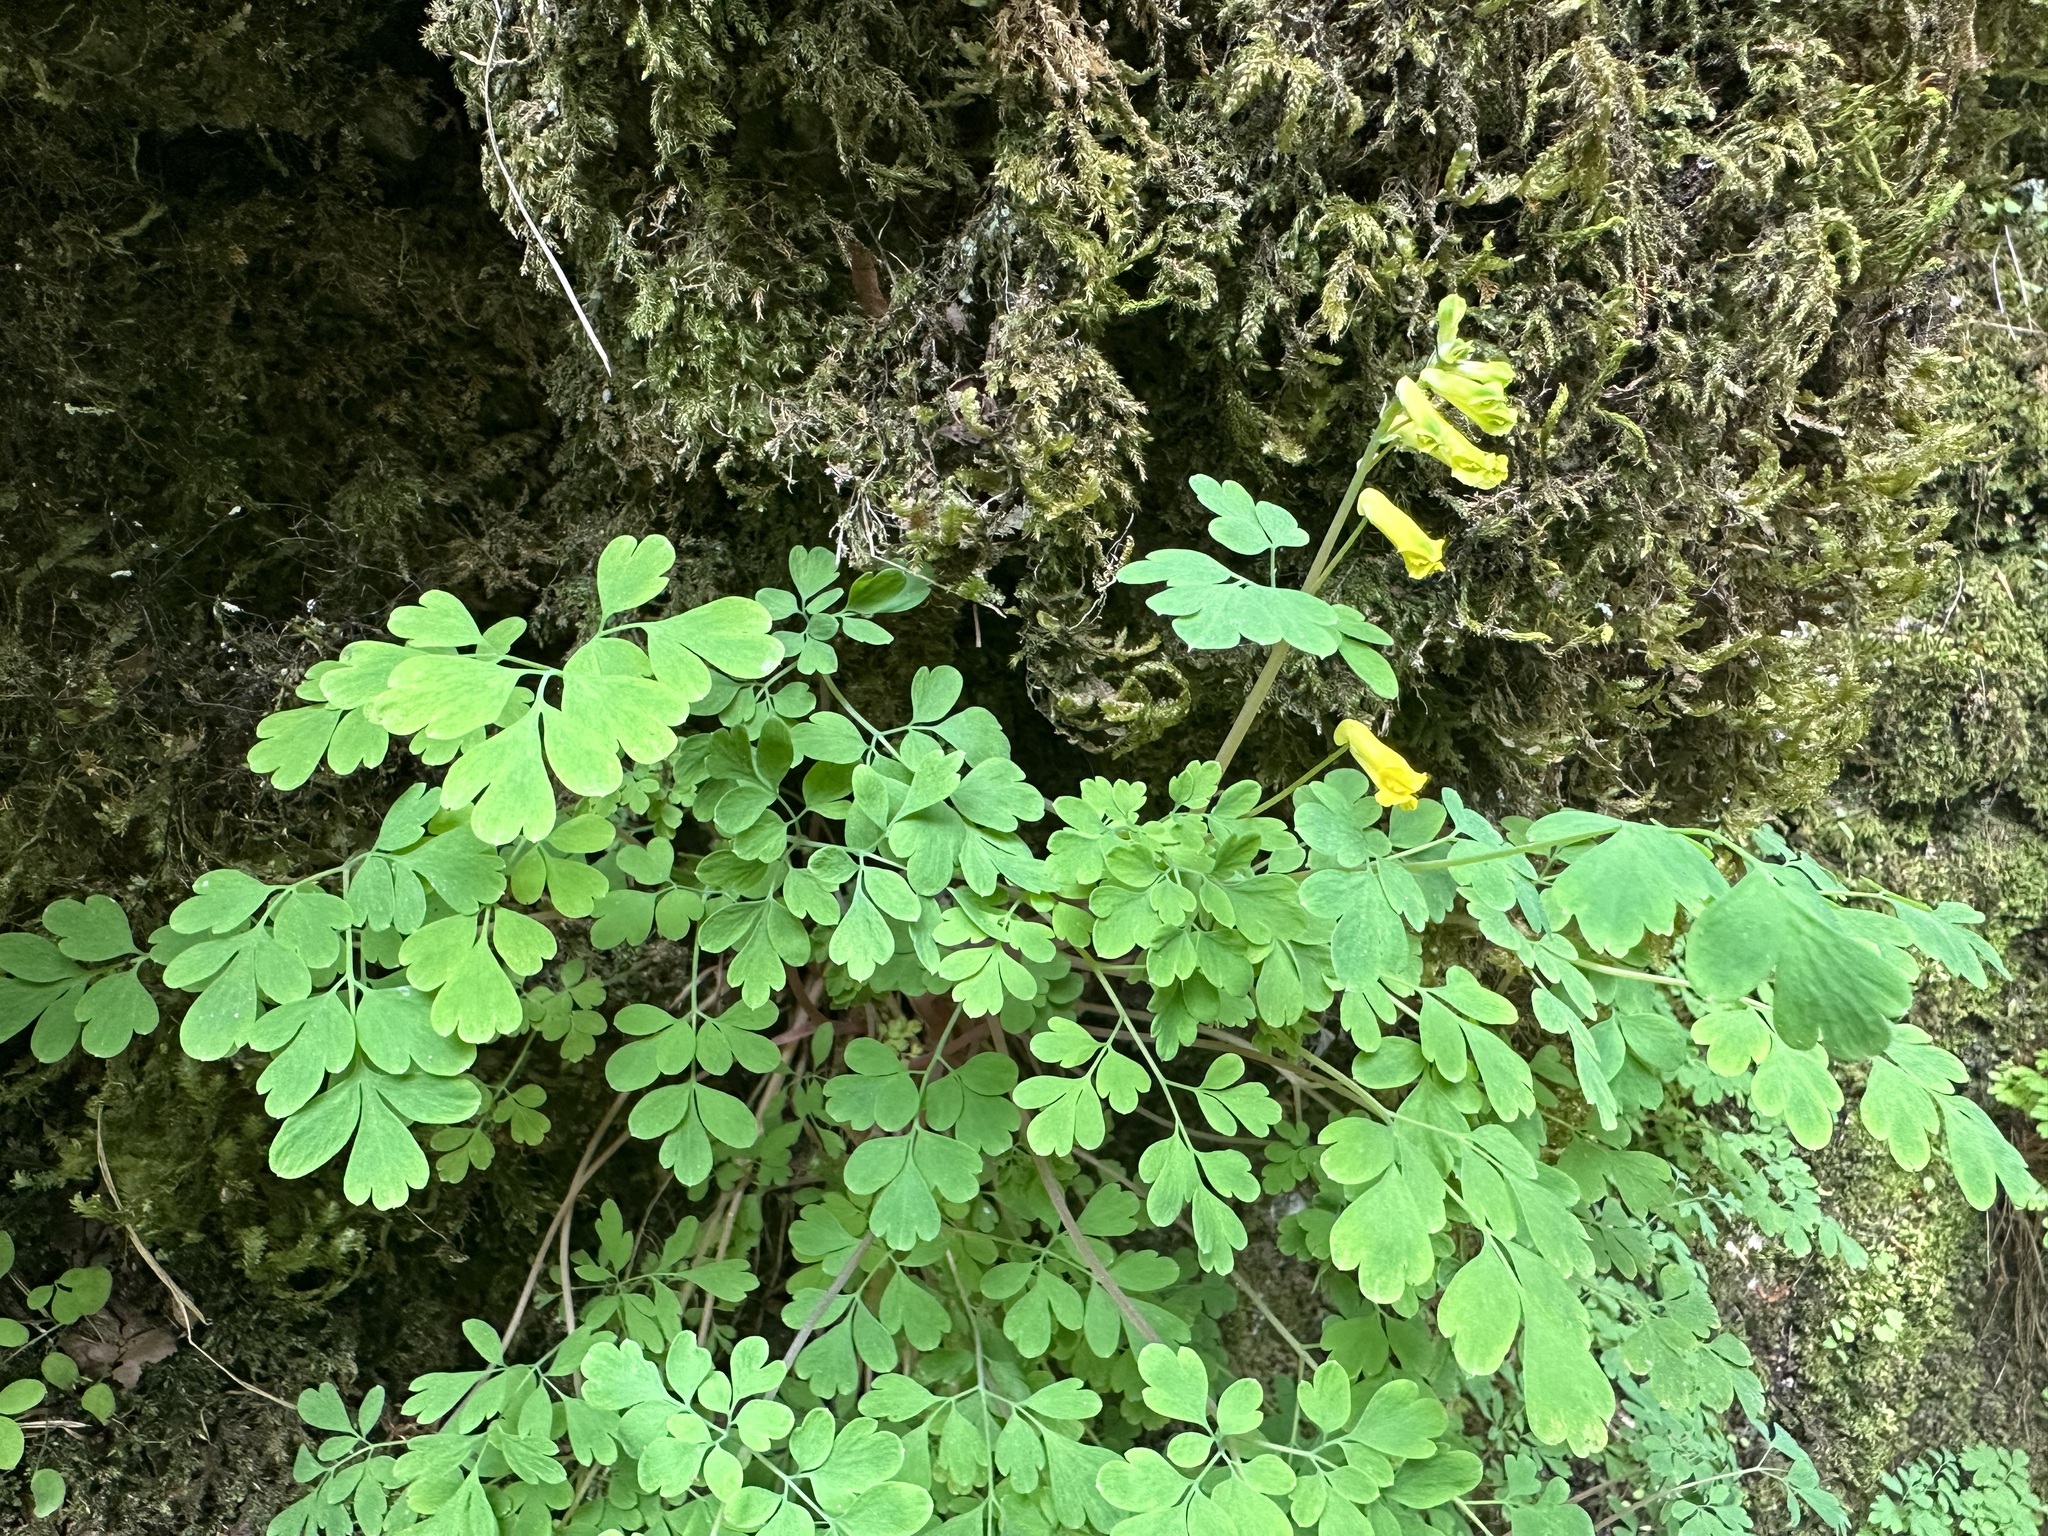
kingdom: Plantae
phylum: Tracheophyta
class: Magnoliopsida
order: Ranunculales
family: Papaveraceae
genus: Pseudofumaria
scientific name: Pseudofumaria lutea
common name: Yellow corydalis
